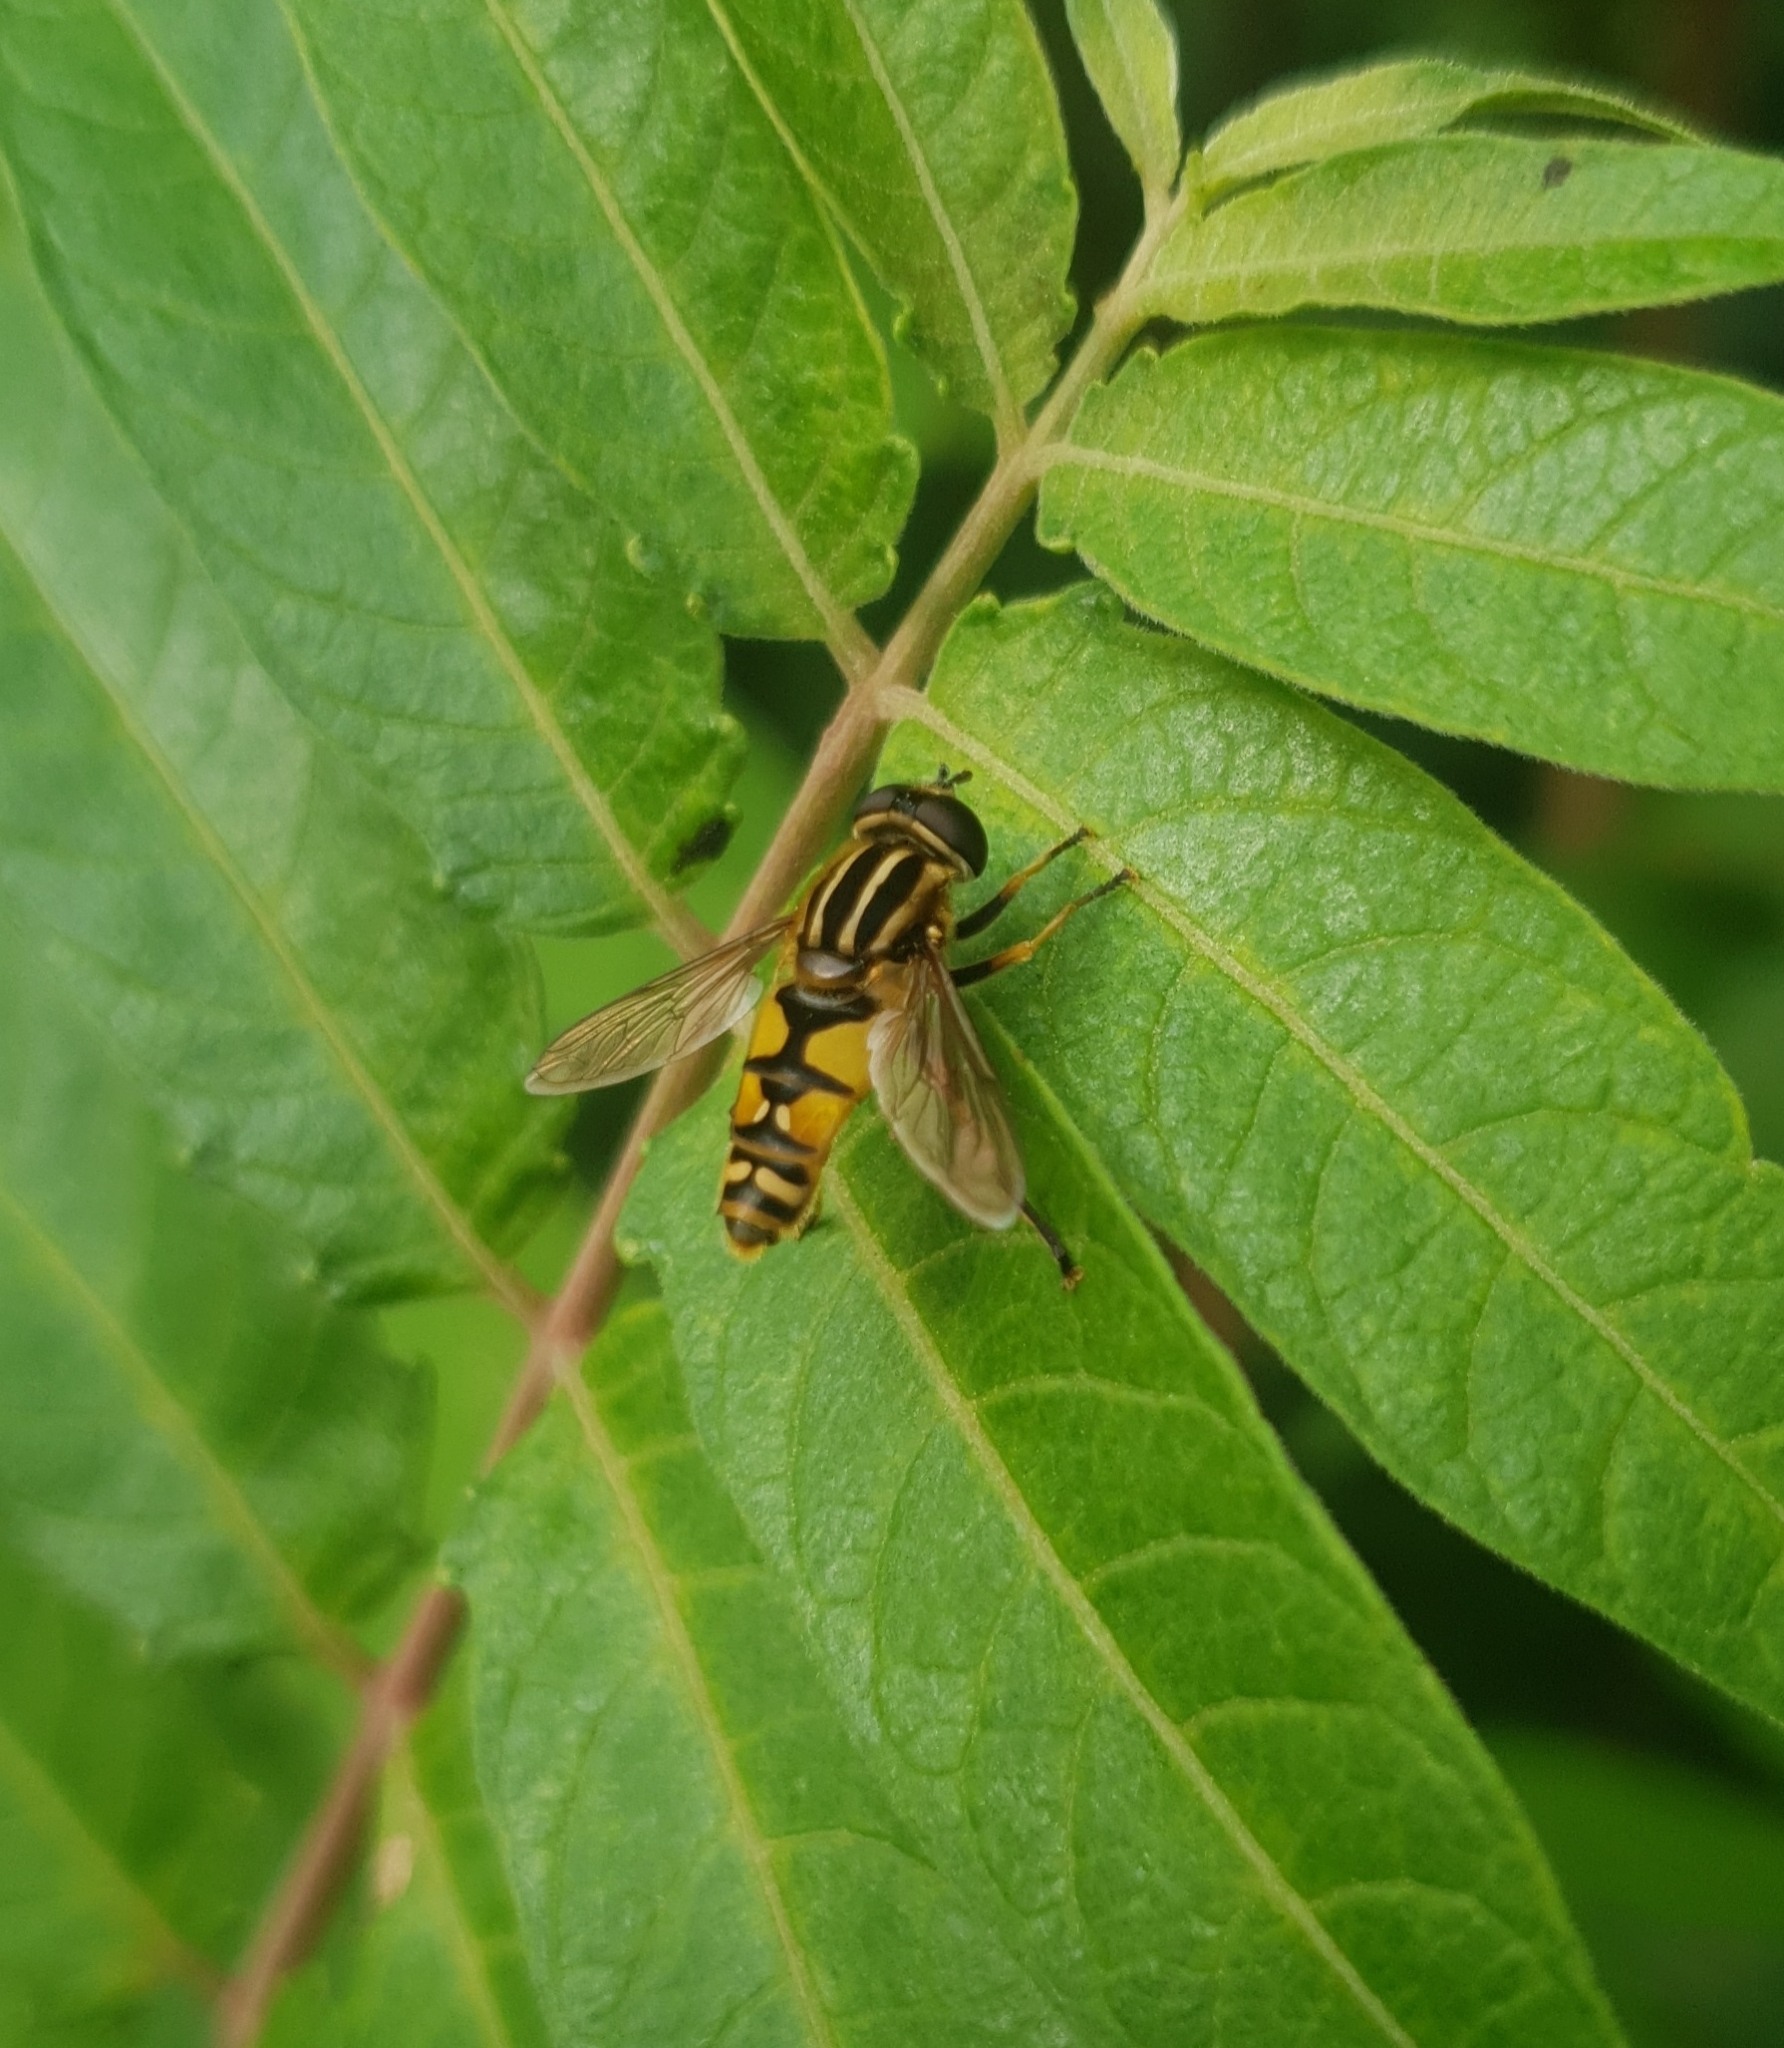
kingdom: Animalia
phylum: Arthropoda
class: Insecta
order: Diptera
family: Syrphidae
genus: Helophilus
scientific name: Helophilus pendulus
